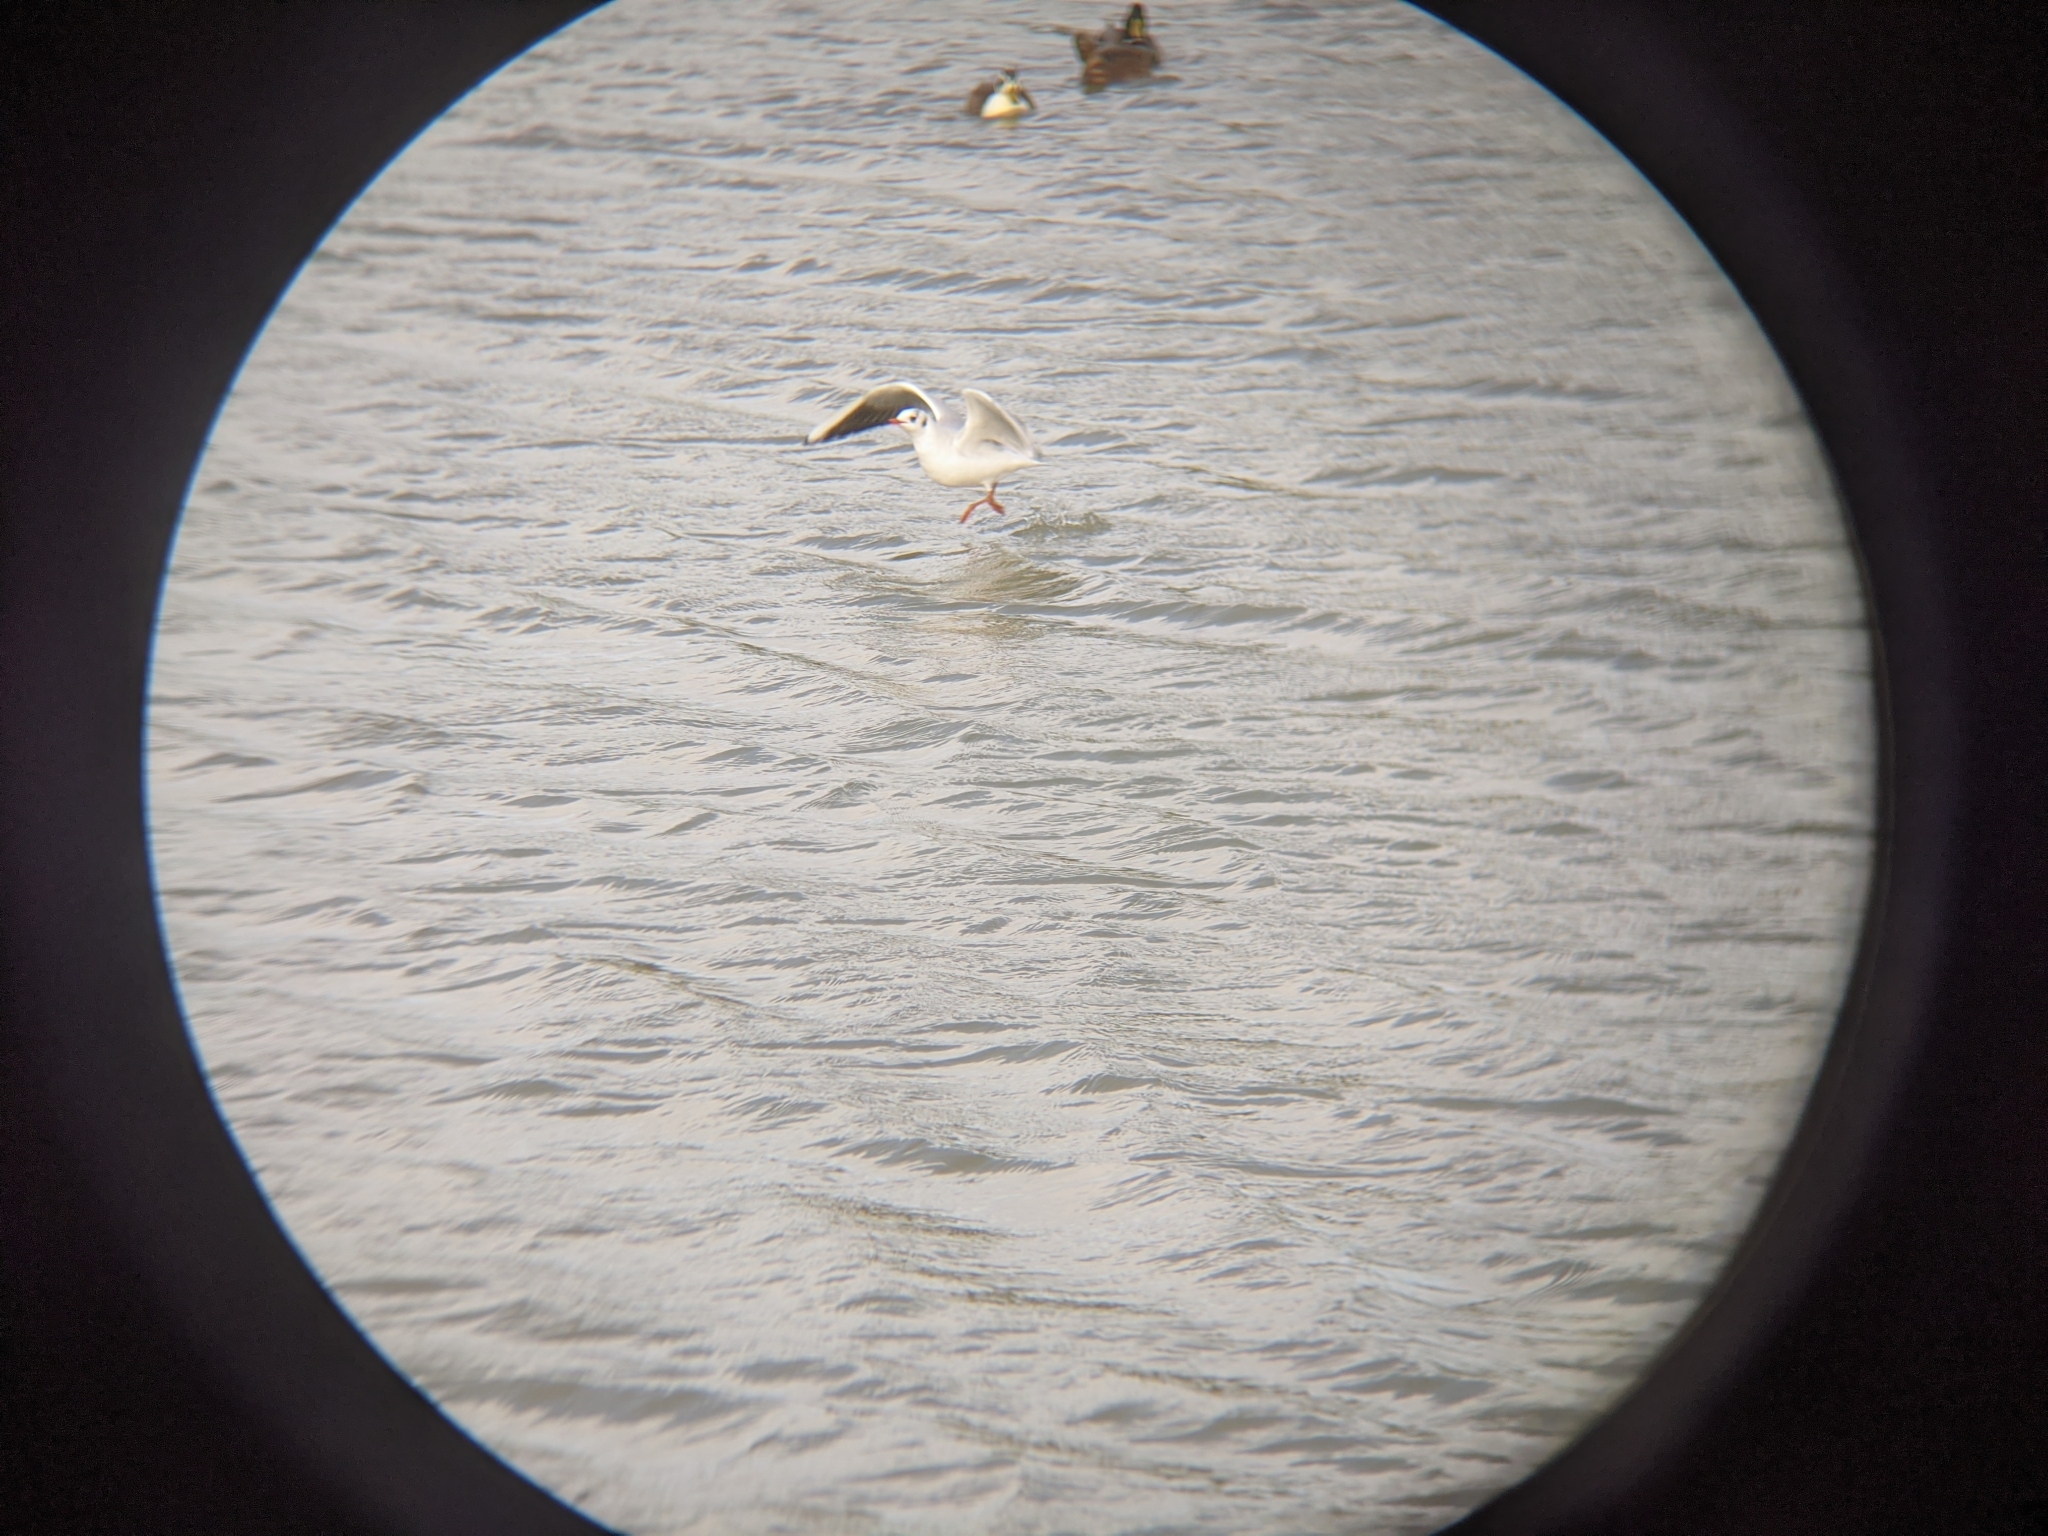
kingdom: Animalia
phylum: Chordata
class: Aves
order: Charadriiformes
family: Laridae
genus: Chroicocephalus
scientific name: Chroicocephalus ridibundus
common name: Black-headed gull
